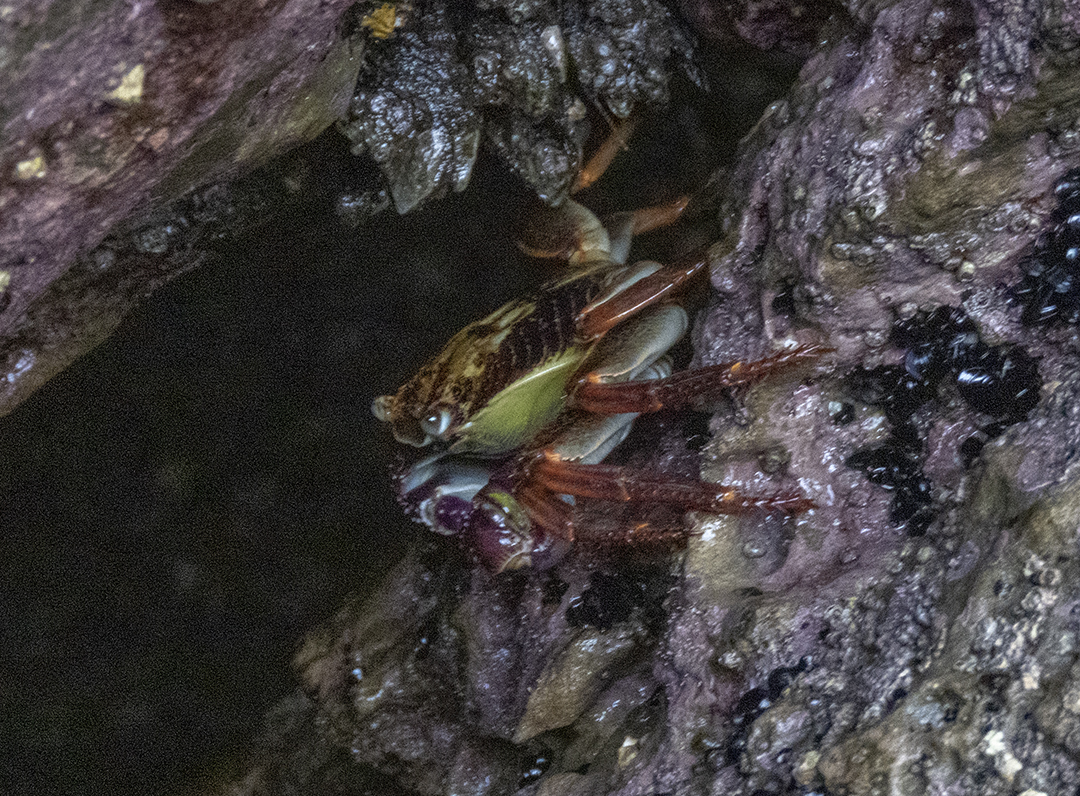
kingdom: Animalia
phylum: Arthropoda
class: Malacostraca
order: Decapoda
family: Grapsidae
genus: Leptograpsus
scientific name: Leptograpsus variegatus
